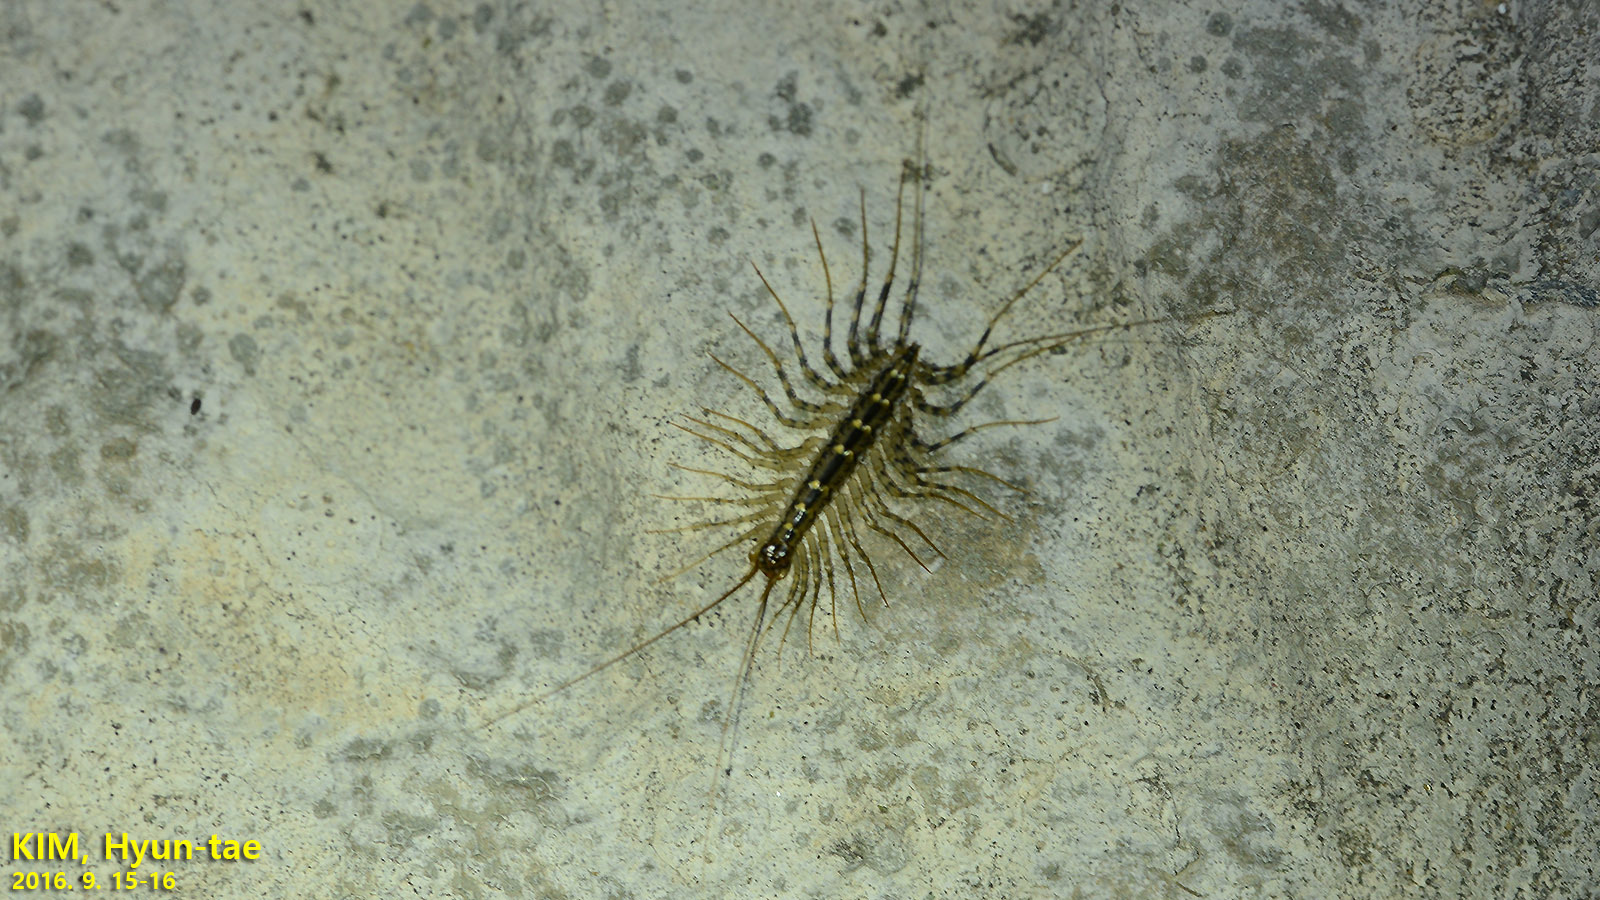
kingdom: Animalia
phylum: Arthropoda
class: Chilopoda
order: Scutigeromorpha
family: Scutigeridae
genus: Thereuonema
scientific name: Thereuonema tuberculata
